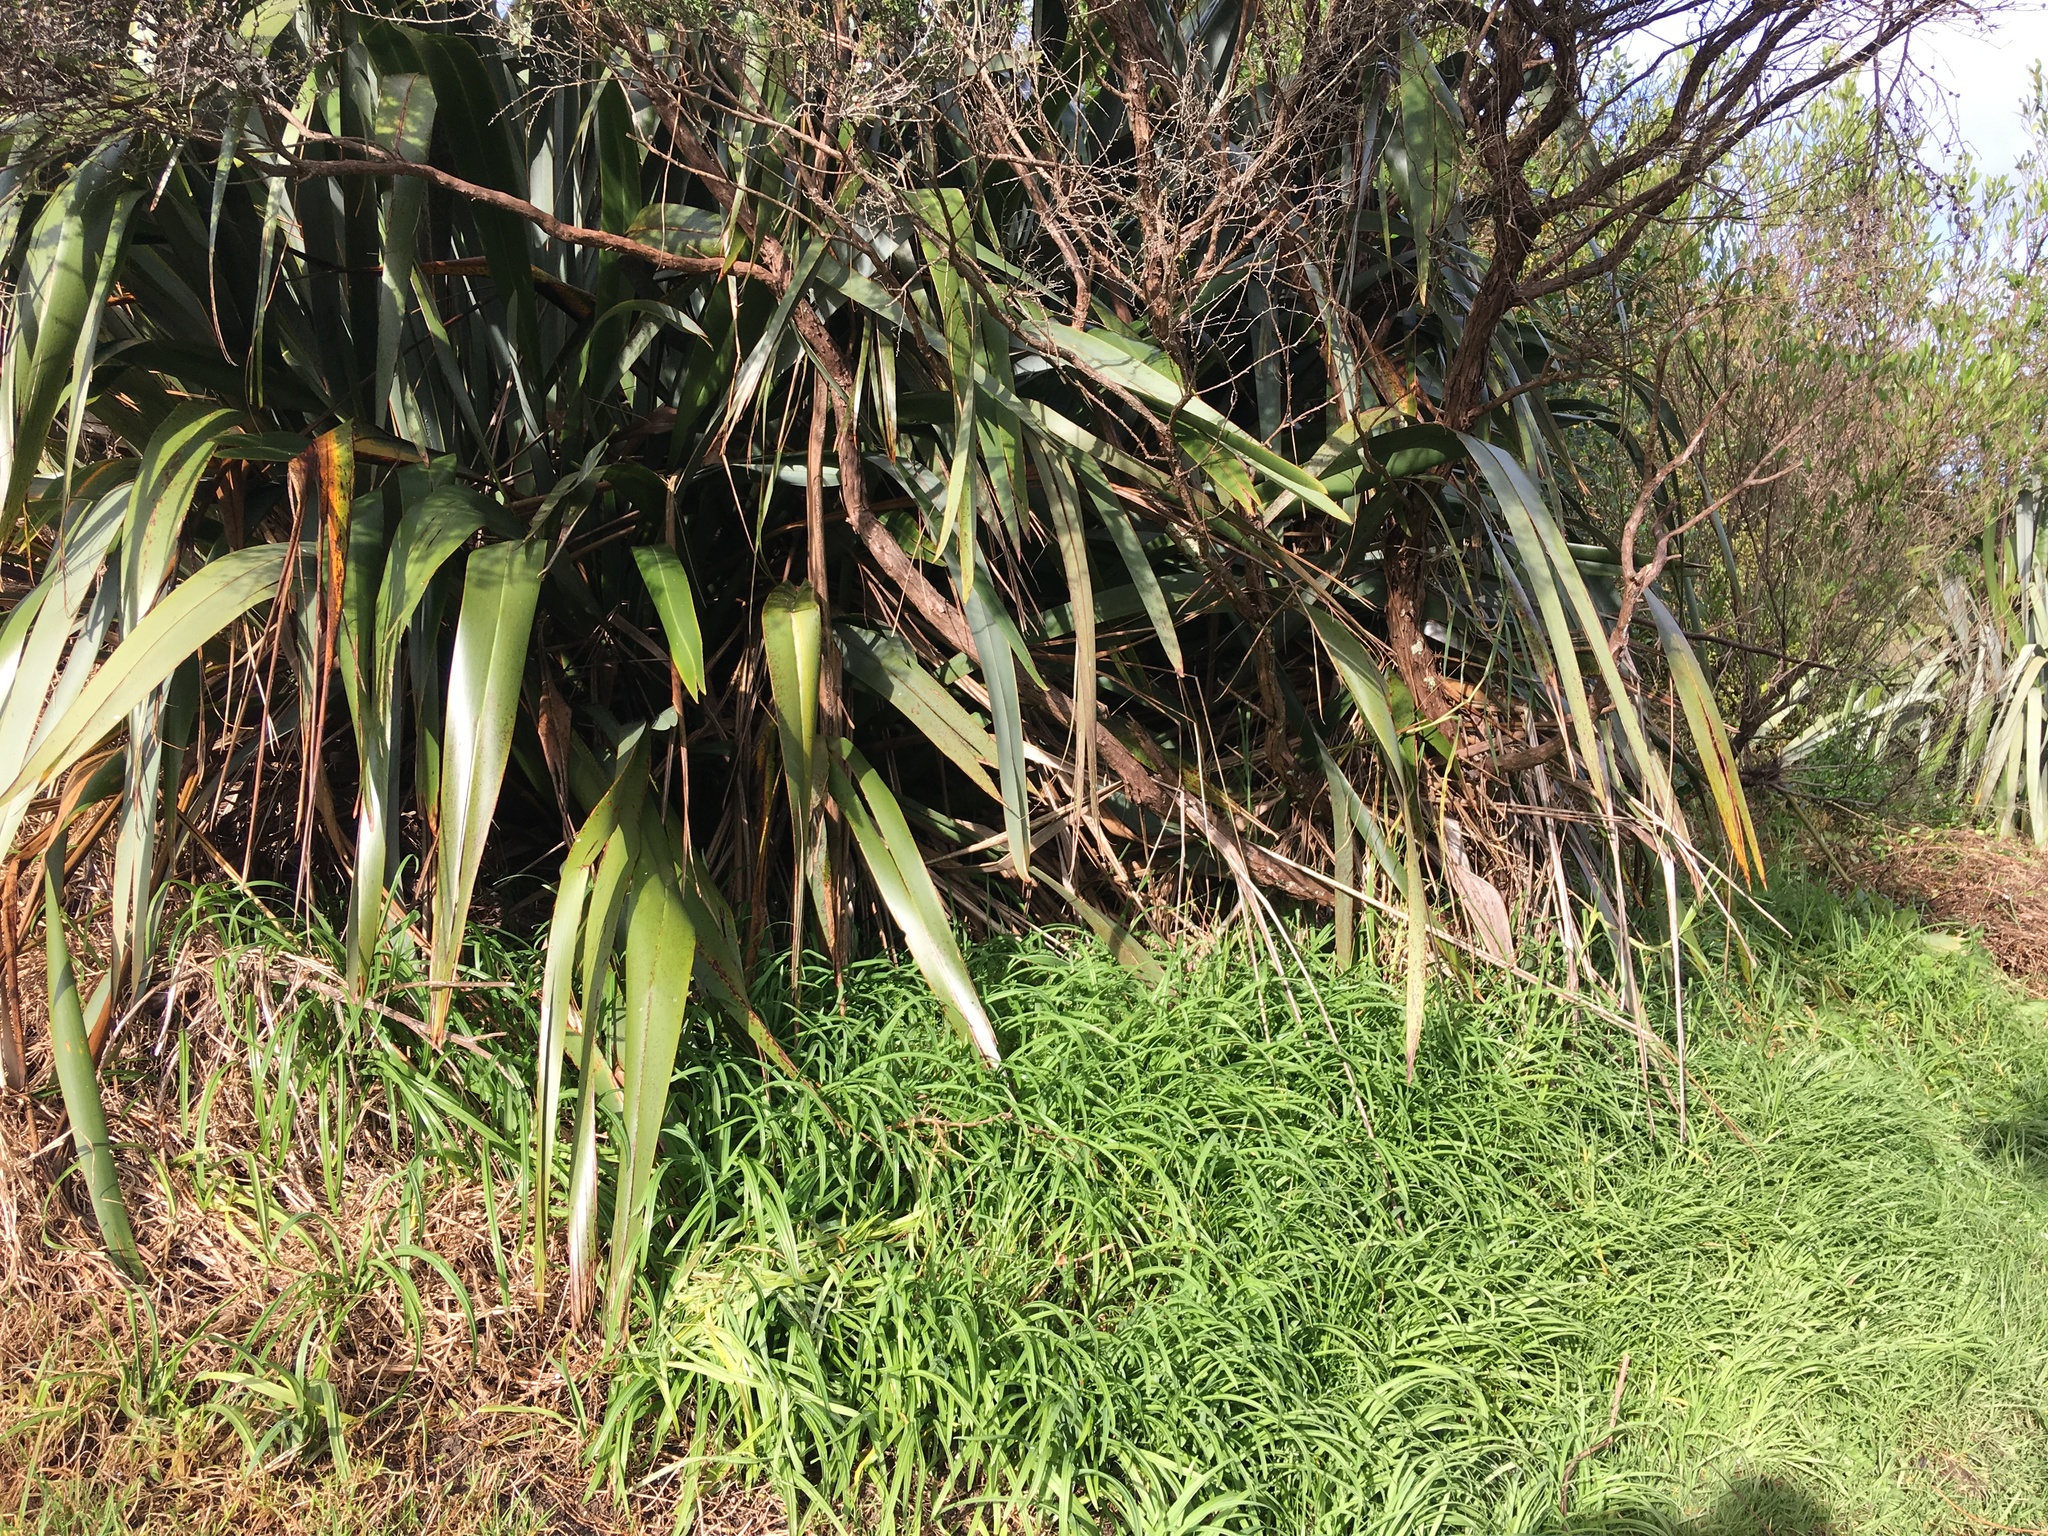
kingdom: Plantae
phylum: Tracheophyta
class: Liliopsida
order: Asparagales
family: Amaryllidaceae
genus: Allium
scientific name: Allium triquetrum
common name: Three-cornered garlic
